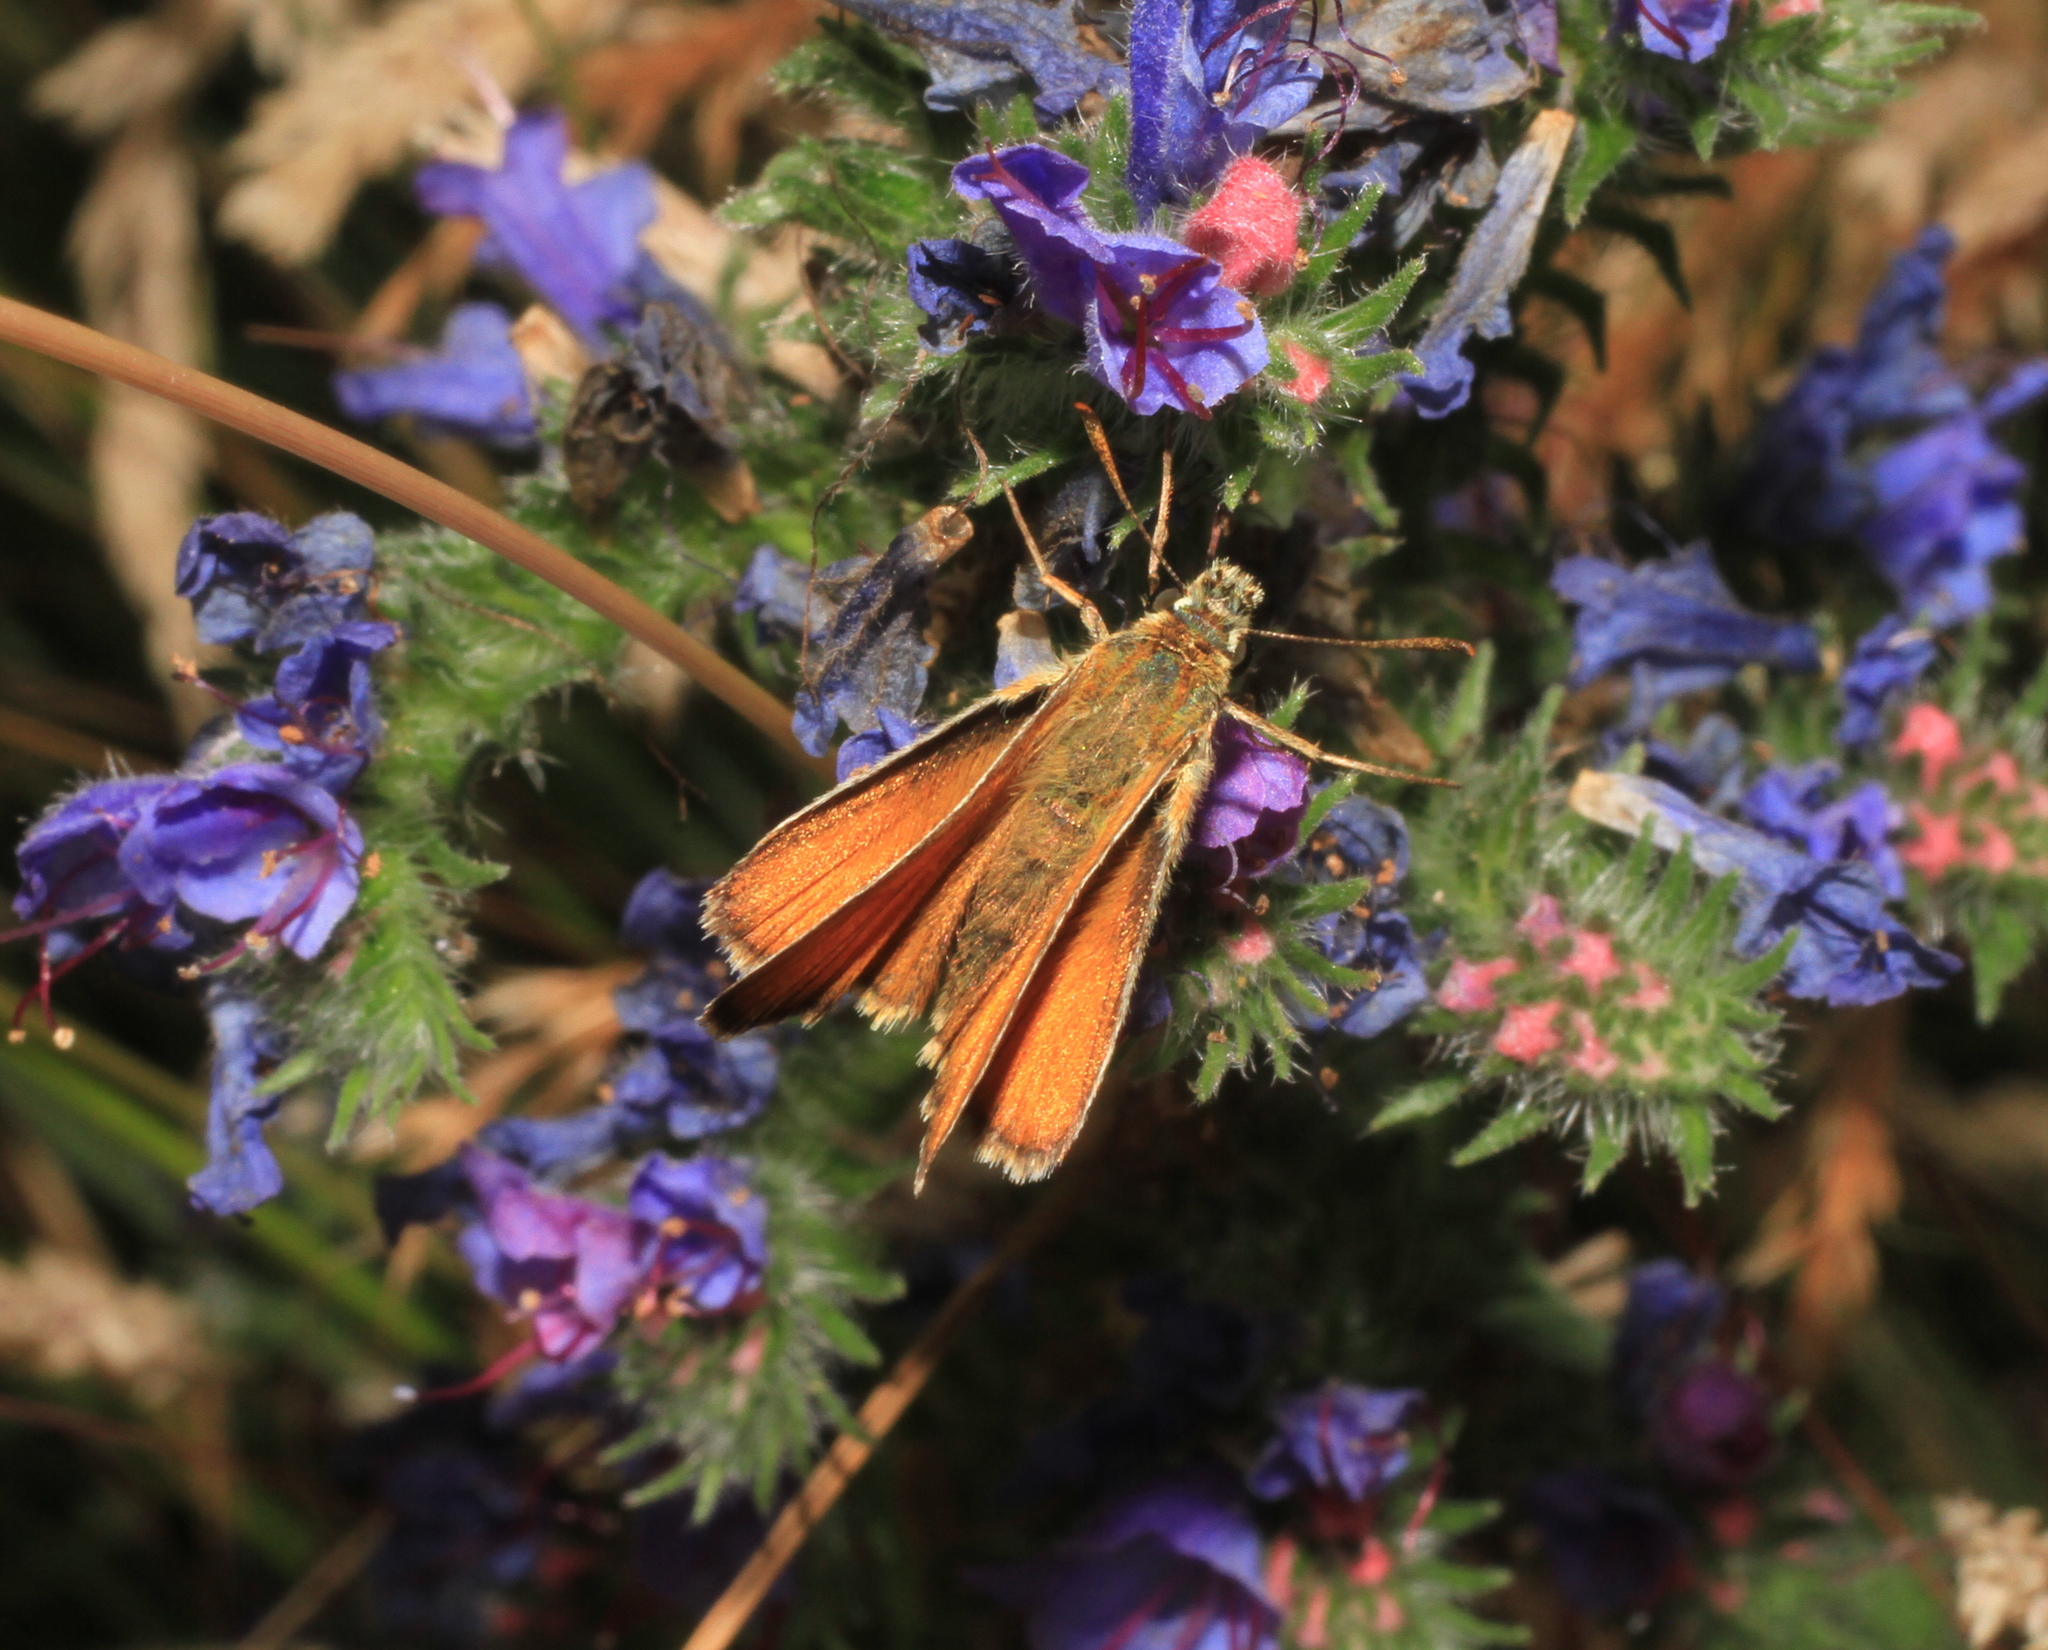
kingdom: Animalia
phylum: Arthropoda
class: Insecta
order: Lepidoptera
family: Hesperiidae
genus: Thymelicus
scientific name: Thymelicus sylvestris
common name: Small skipper
